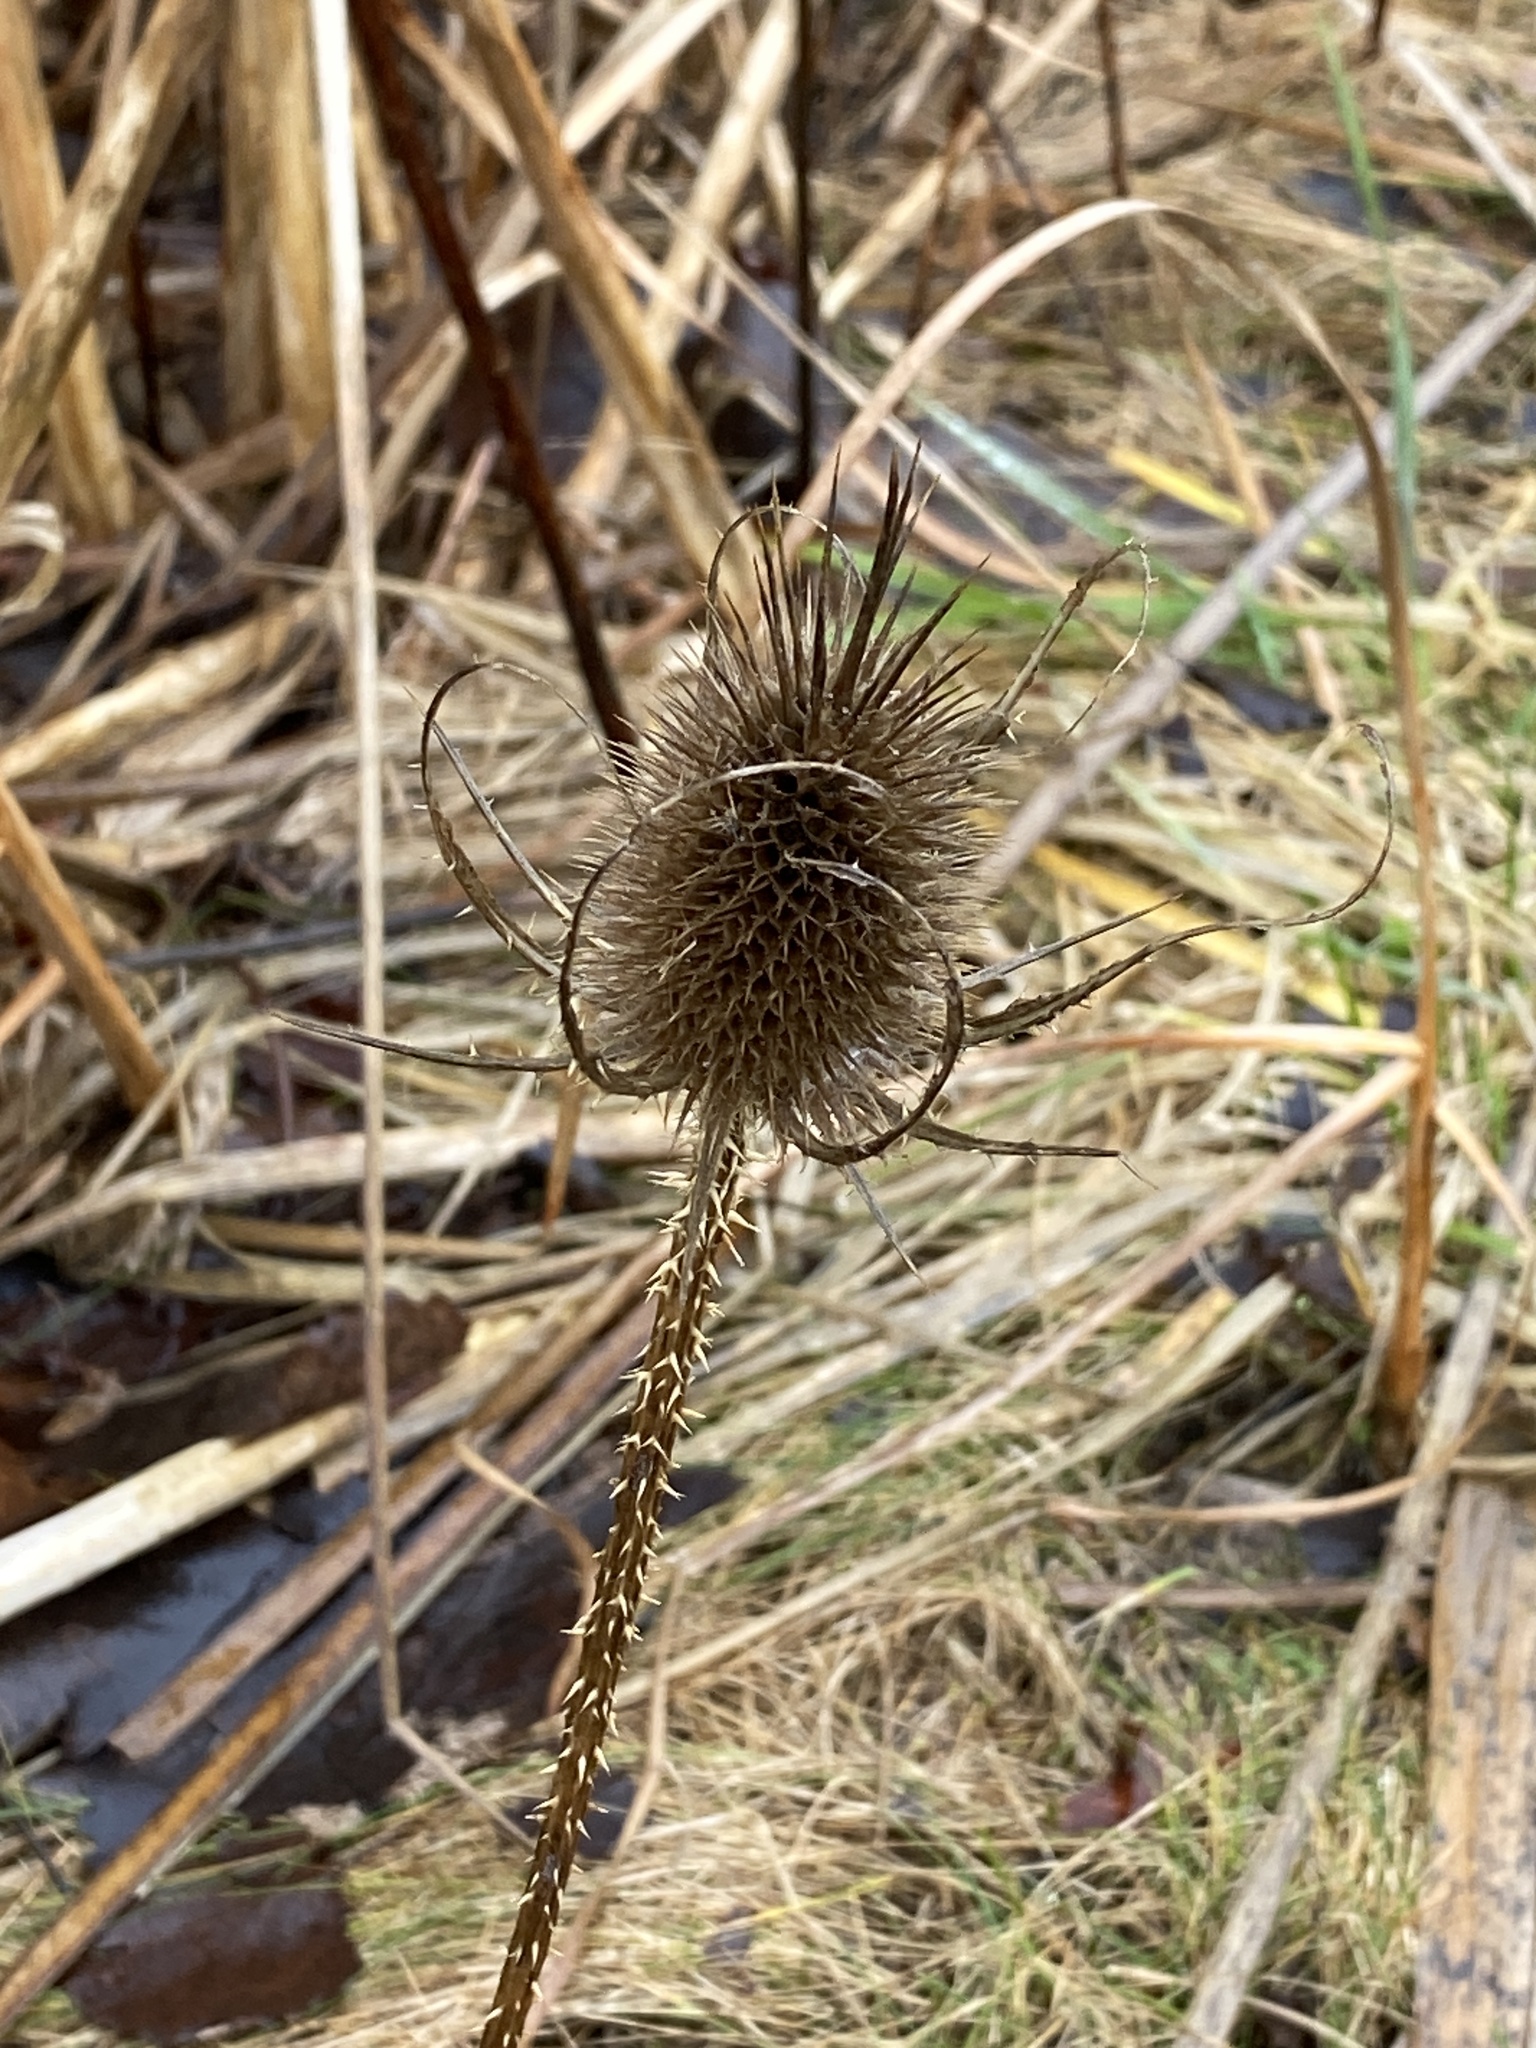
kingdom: Plantae
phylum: Tracheophyta
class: Magnoliopsida
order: Dipsacales
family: Caprifoliaceae
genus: Dipsacus
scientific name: Dipsacus fullonum
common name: Teasel
